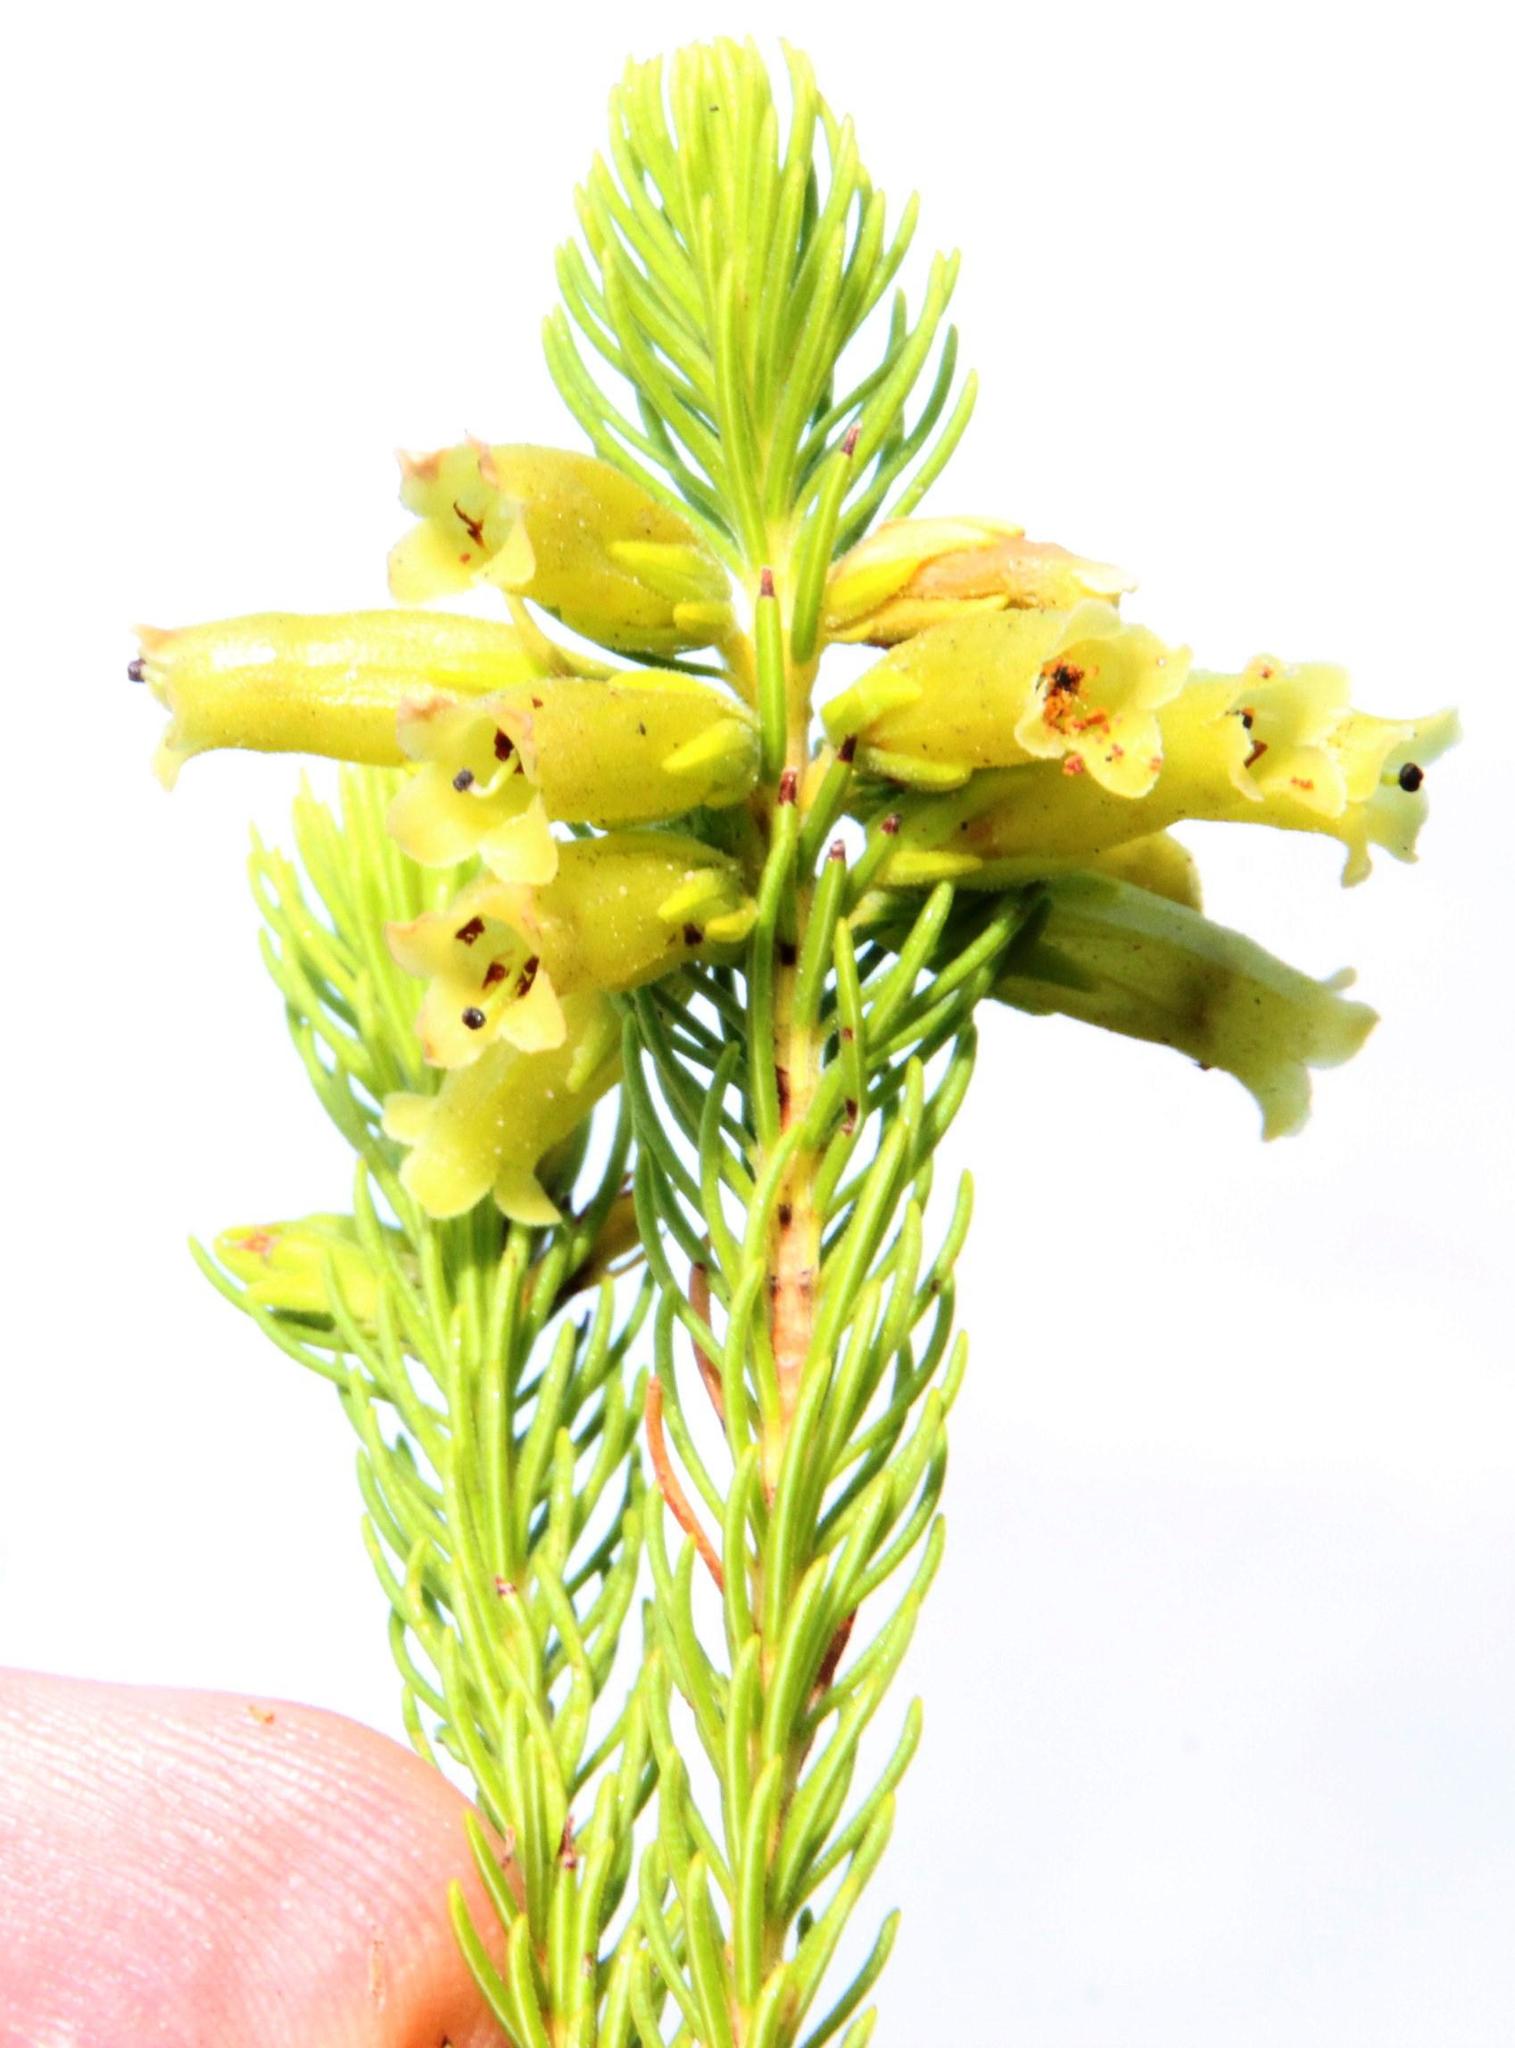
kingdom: Plantae
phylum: Tracheophyta
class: Magnoliopsida
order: Ericales
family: Ericaceae
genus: Erica
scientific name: Erica viscaria
